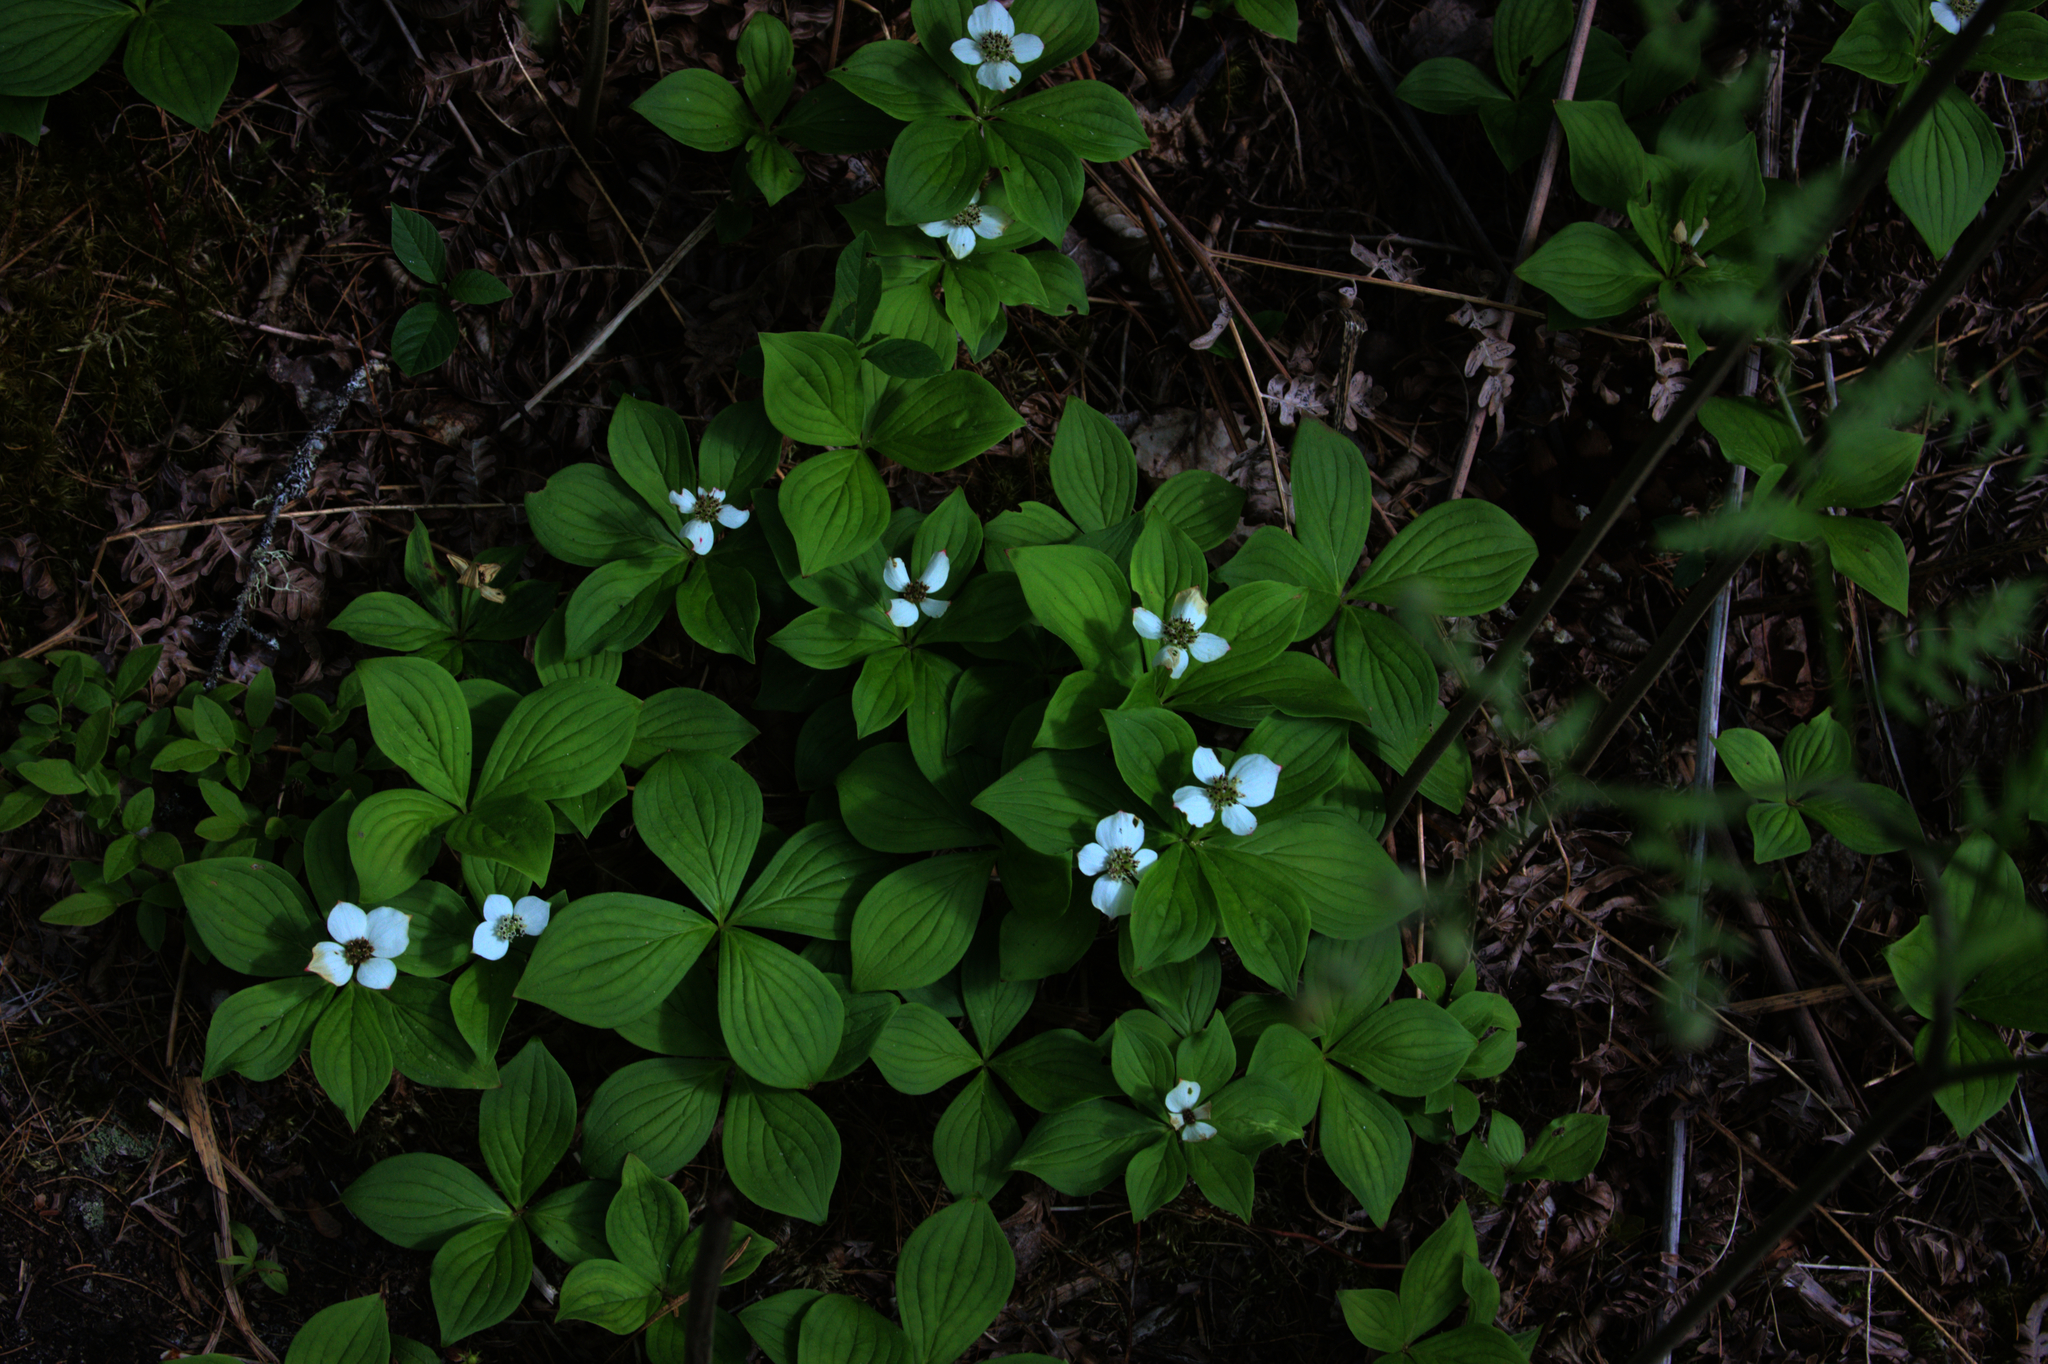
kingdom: Plantae
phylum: Tracheophyta
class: Magnoliopsida
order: Cornales
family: Cornaceae
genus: Cornus
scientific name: Cornus canadensis
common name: Creeping dogwood
